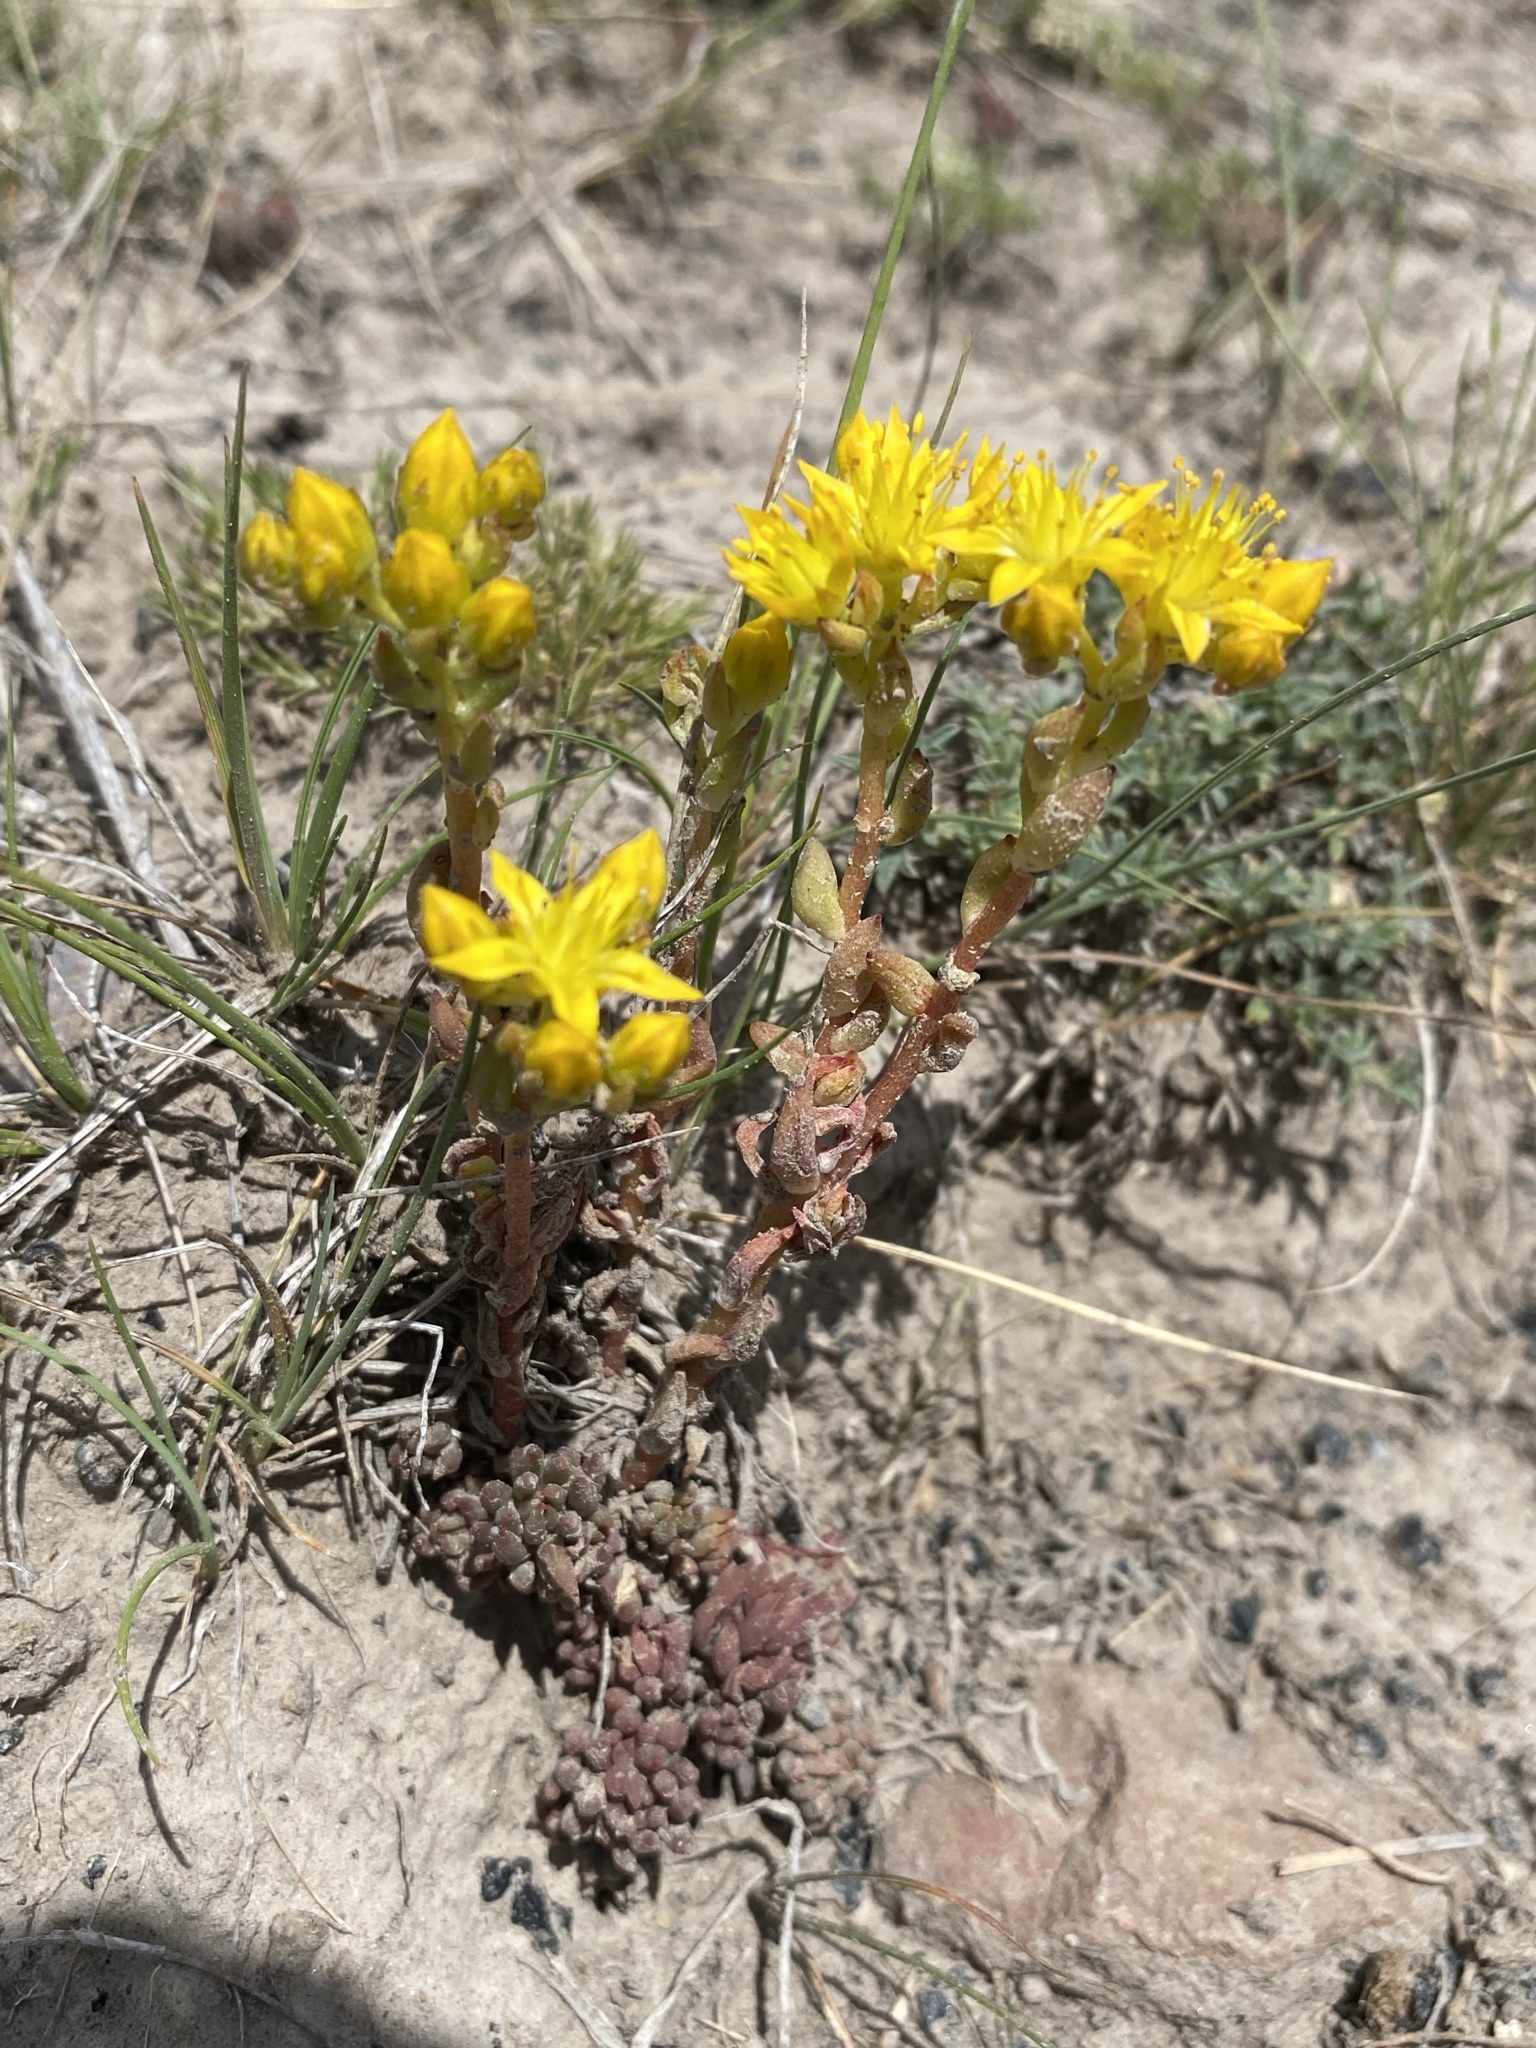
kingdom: Plantae
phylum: Tracheophyta
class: Magnoliopsida
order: Saxifragales
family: Crassulaceae
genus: Sedum
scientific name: Sedum lanceolatum
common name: Common stonecrop
